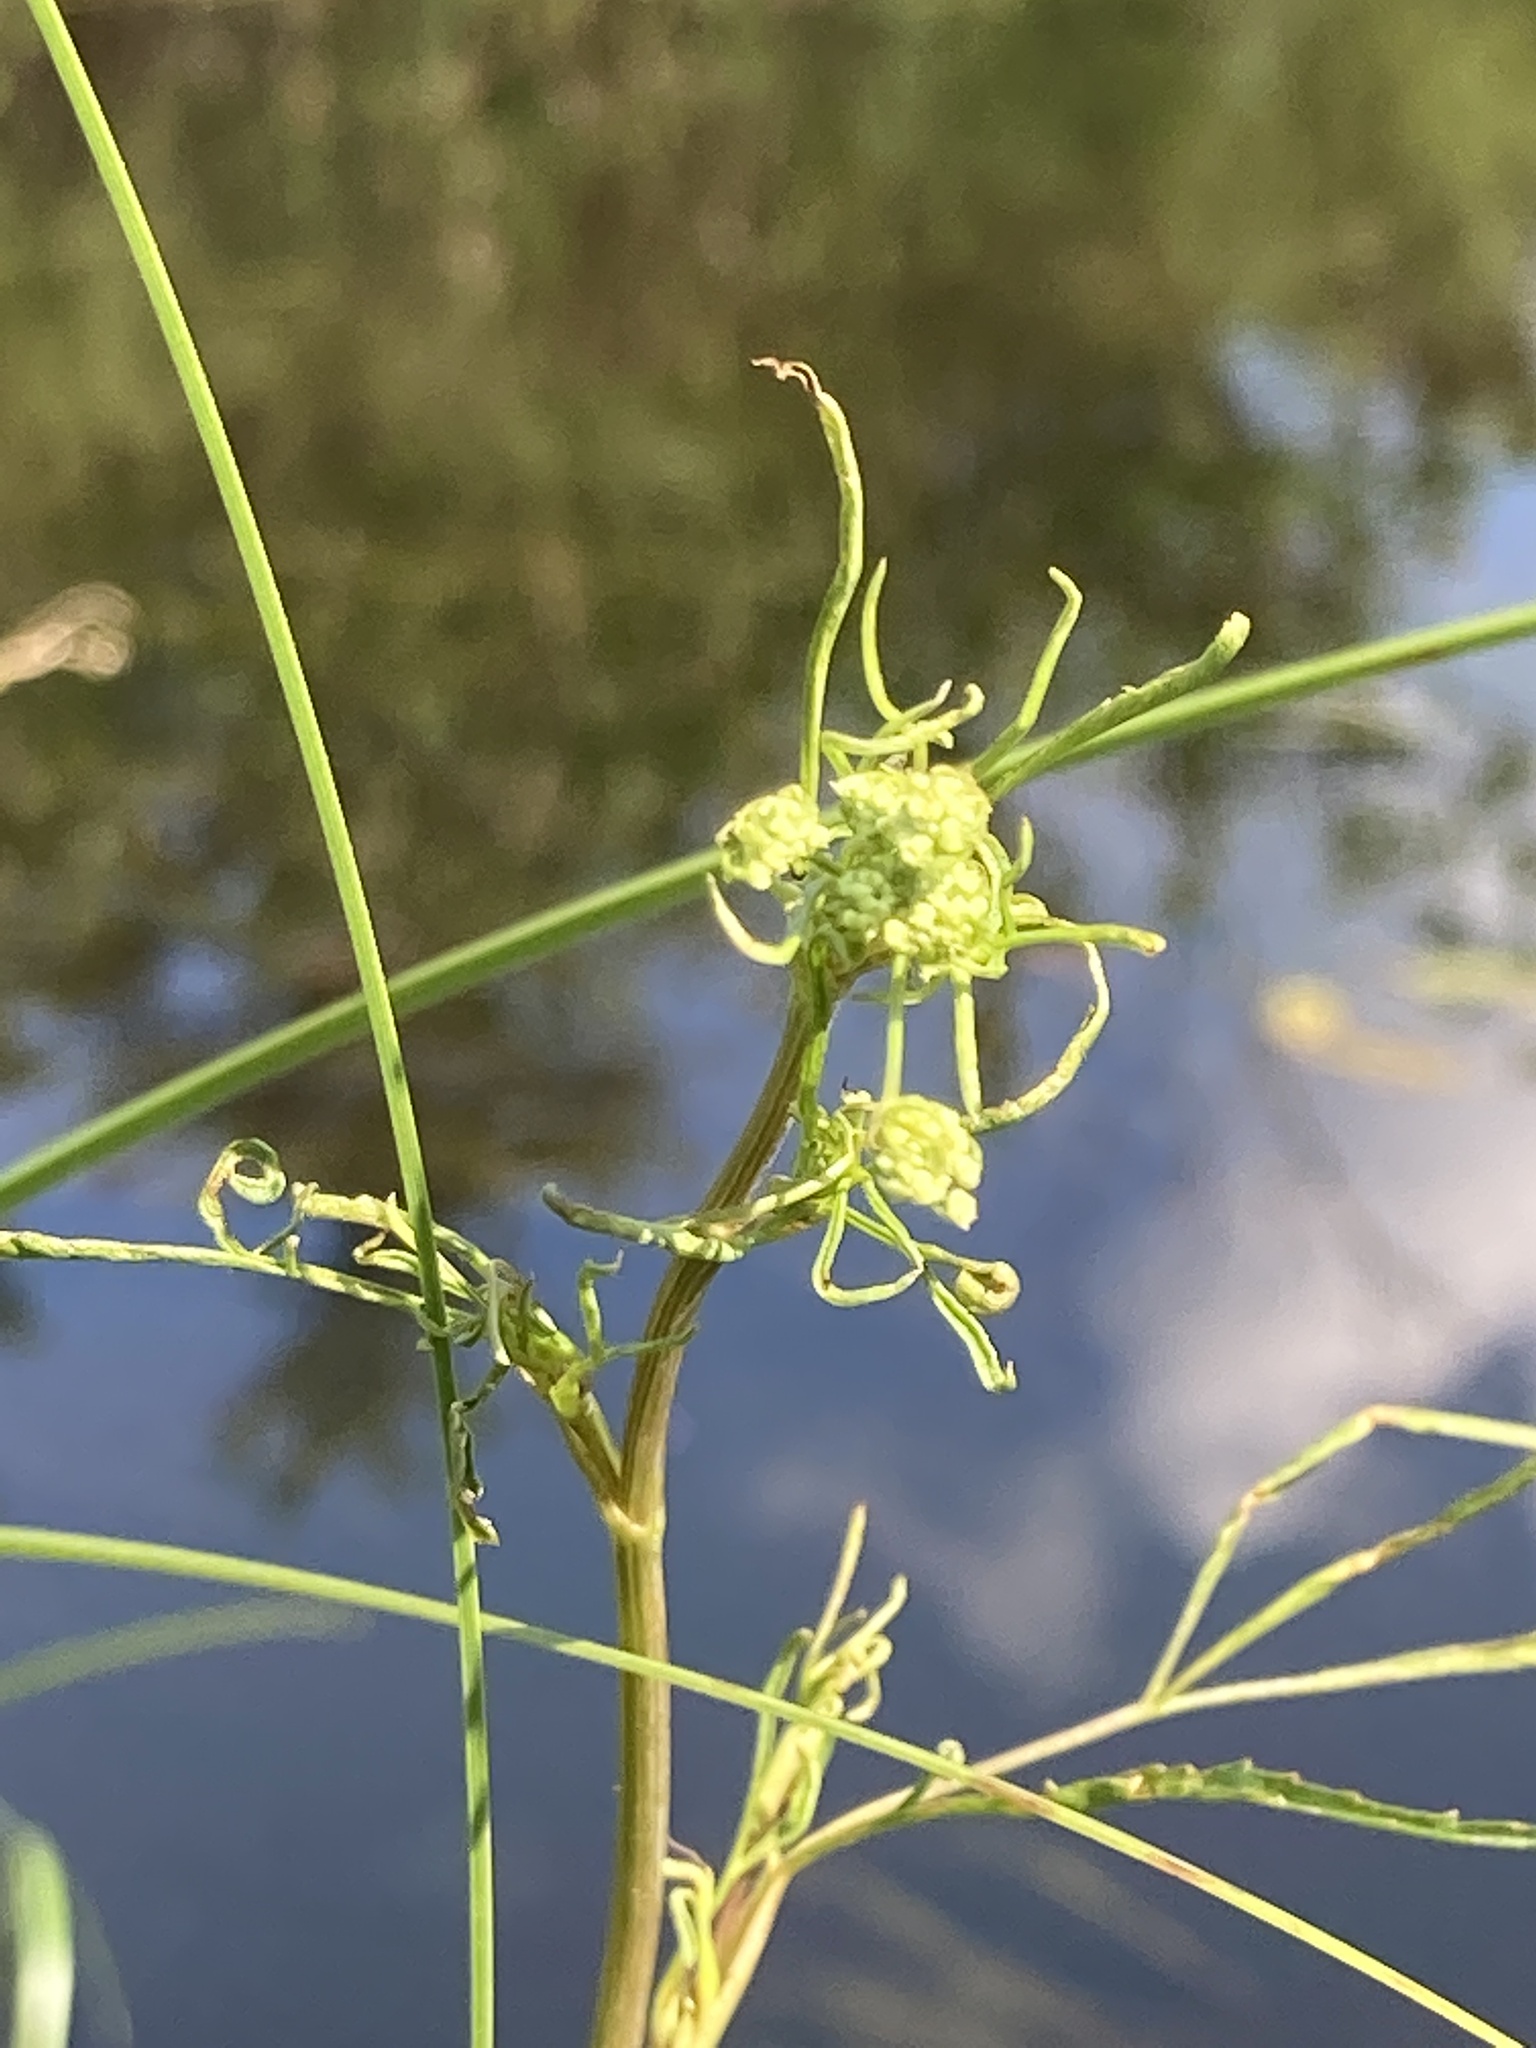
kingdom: Plantae
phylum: Tracheophyta
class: Magnoliopsida
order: Apiales
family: Apiaceae
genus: Cicuta
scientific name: Cicuta bulbifera
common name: Bulb-bearing water-hemlock
